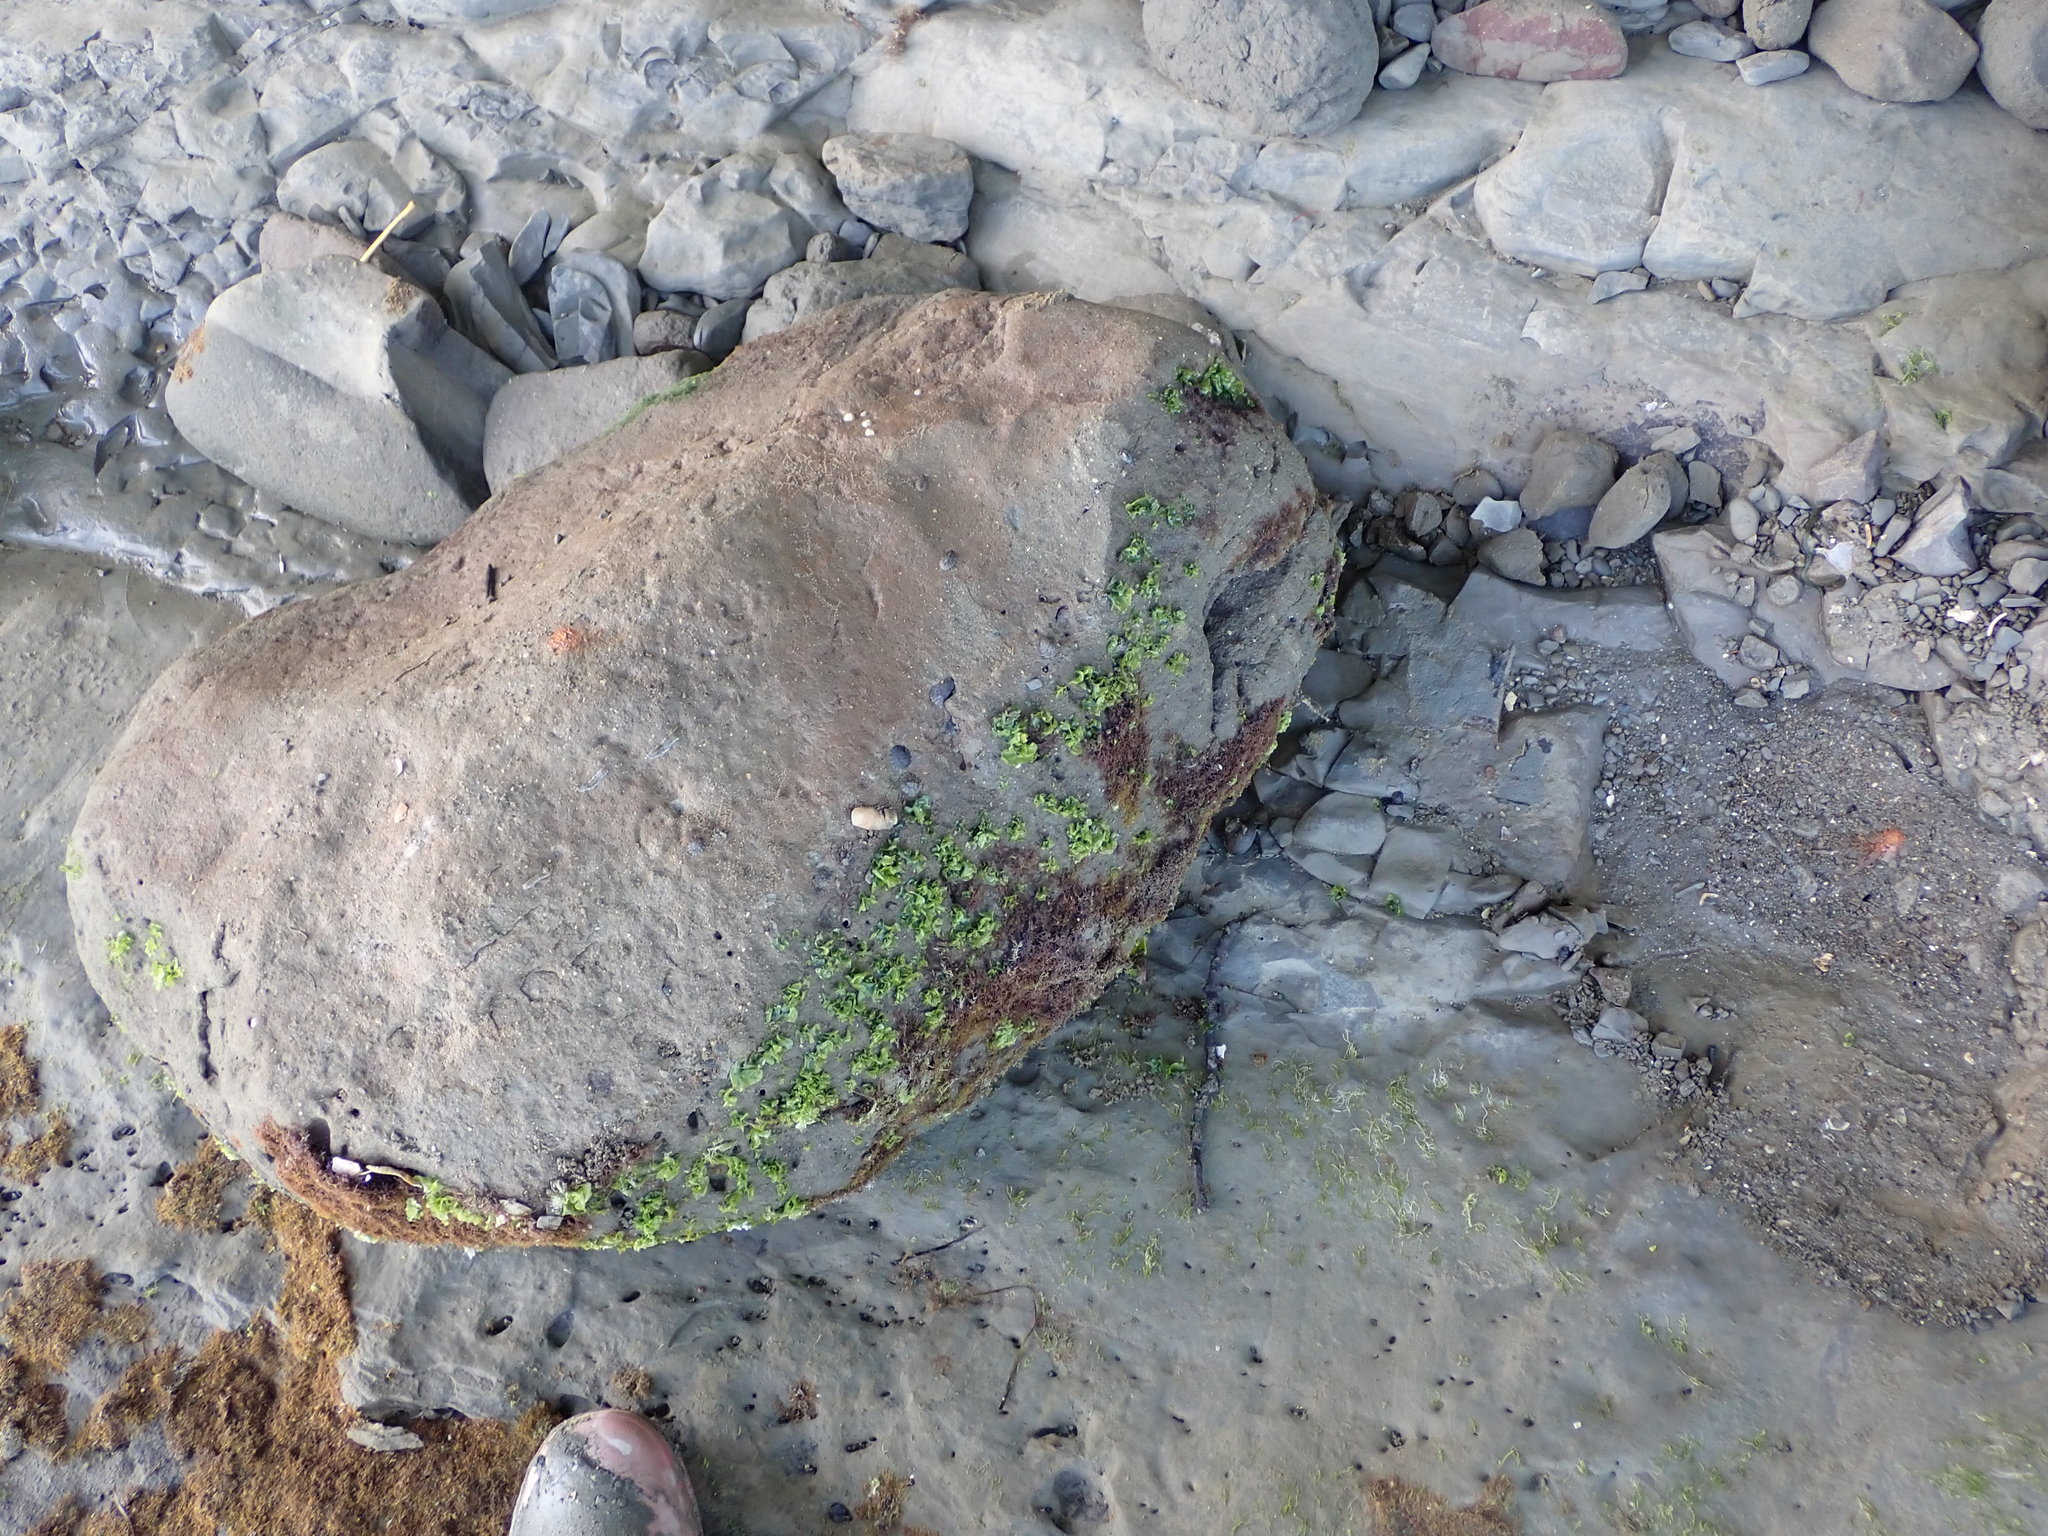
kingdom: Animalia
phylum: Mollusca
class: Gastropoda
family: Batillariidae
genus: Zeacumantus
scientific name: Zeacumantus subcarinatus
